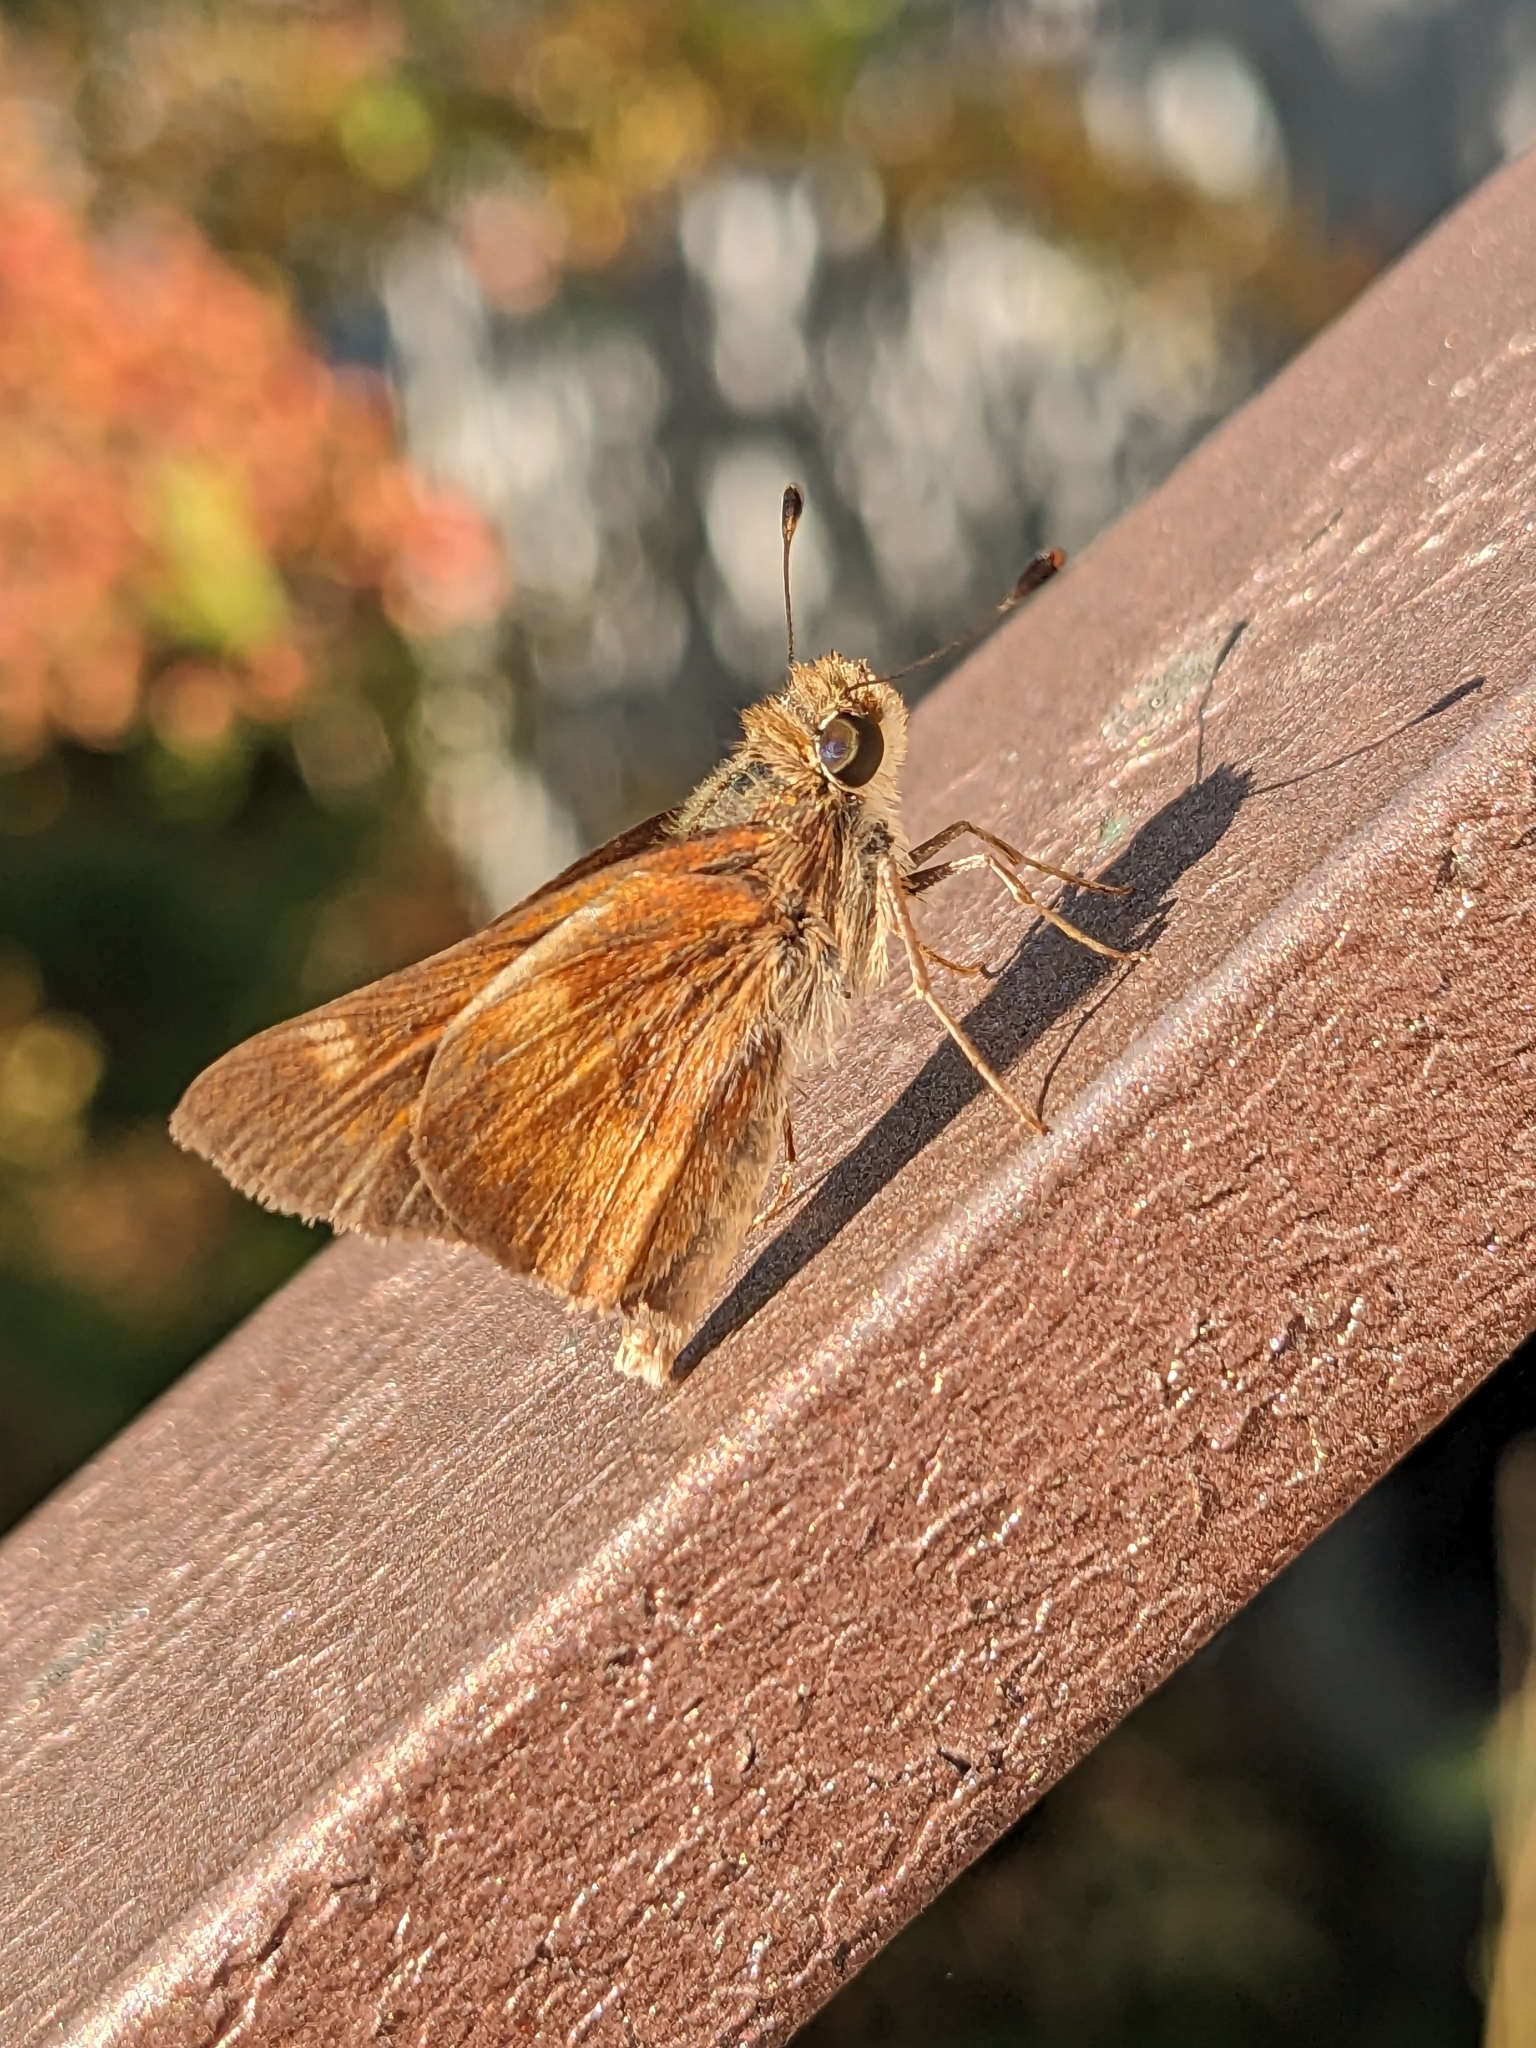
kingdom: Animalia
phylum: Arthropoda
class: Insecta
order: Lepidoptera
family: Hesperiidae
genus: Lon
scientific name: Lon melane
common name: Umber skipper
